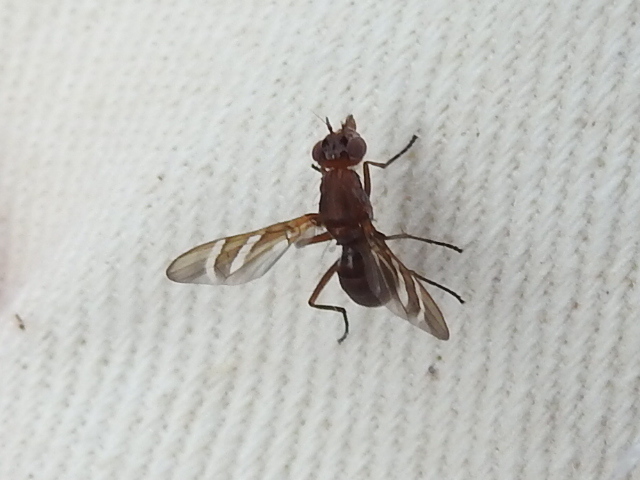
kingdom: Animalia
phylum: Arthropoda
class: Insecta
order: Diptera
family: Ulidiidae
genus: Tritoxa
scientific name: Tritoxa incurva
